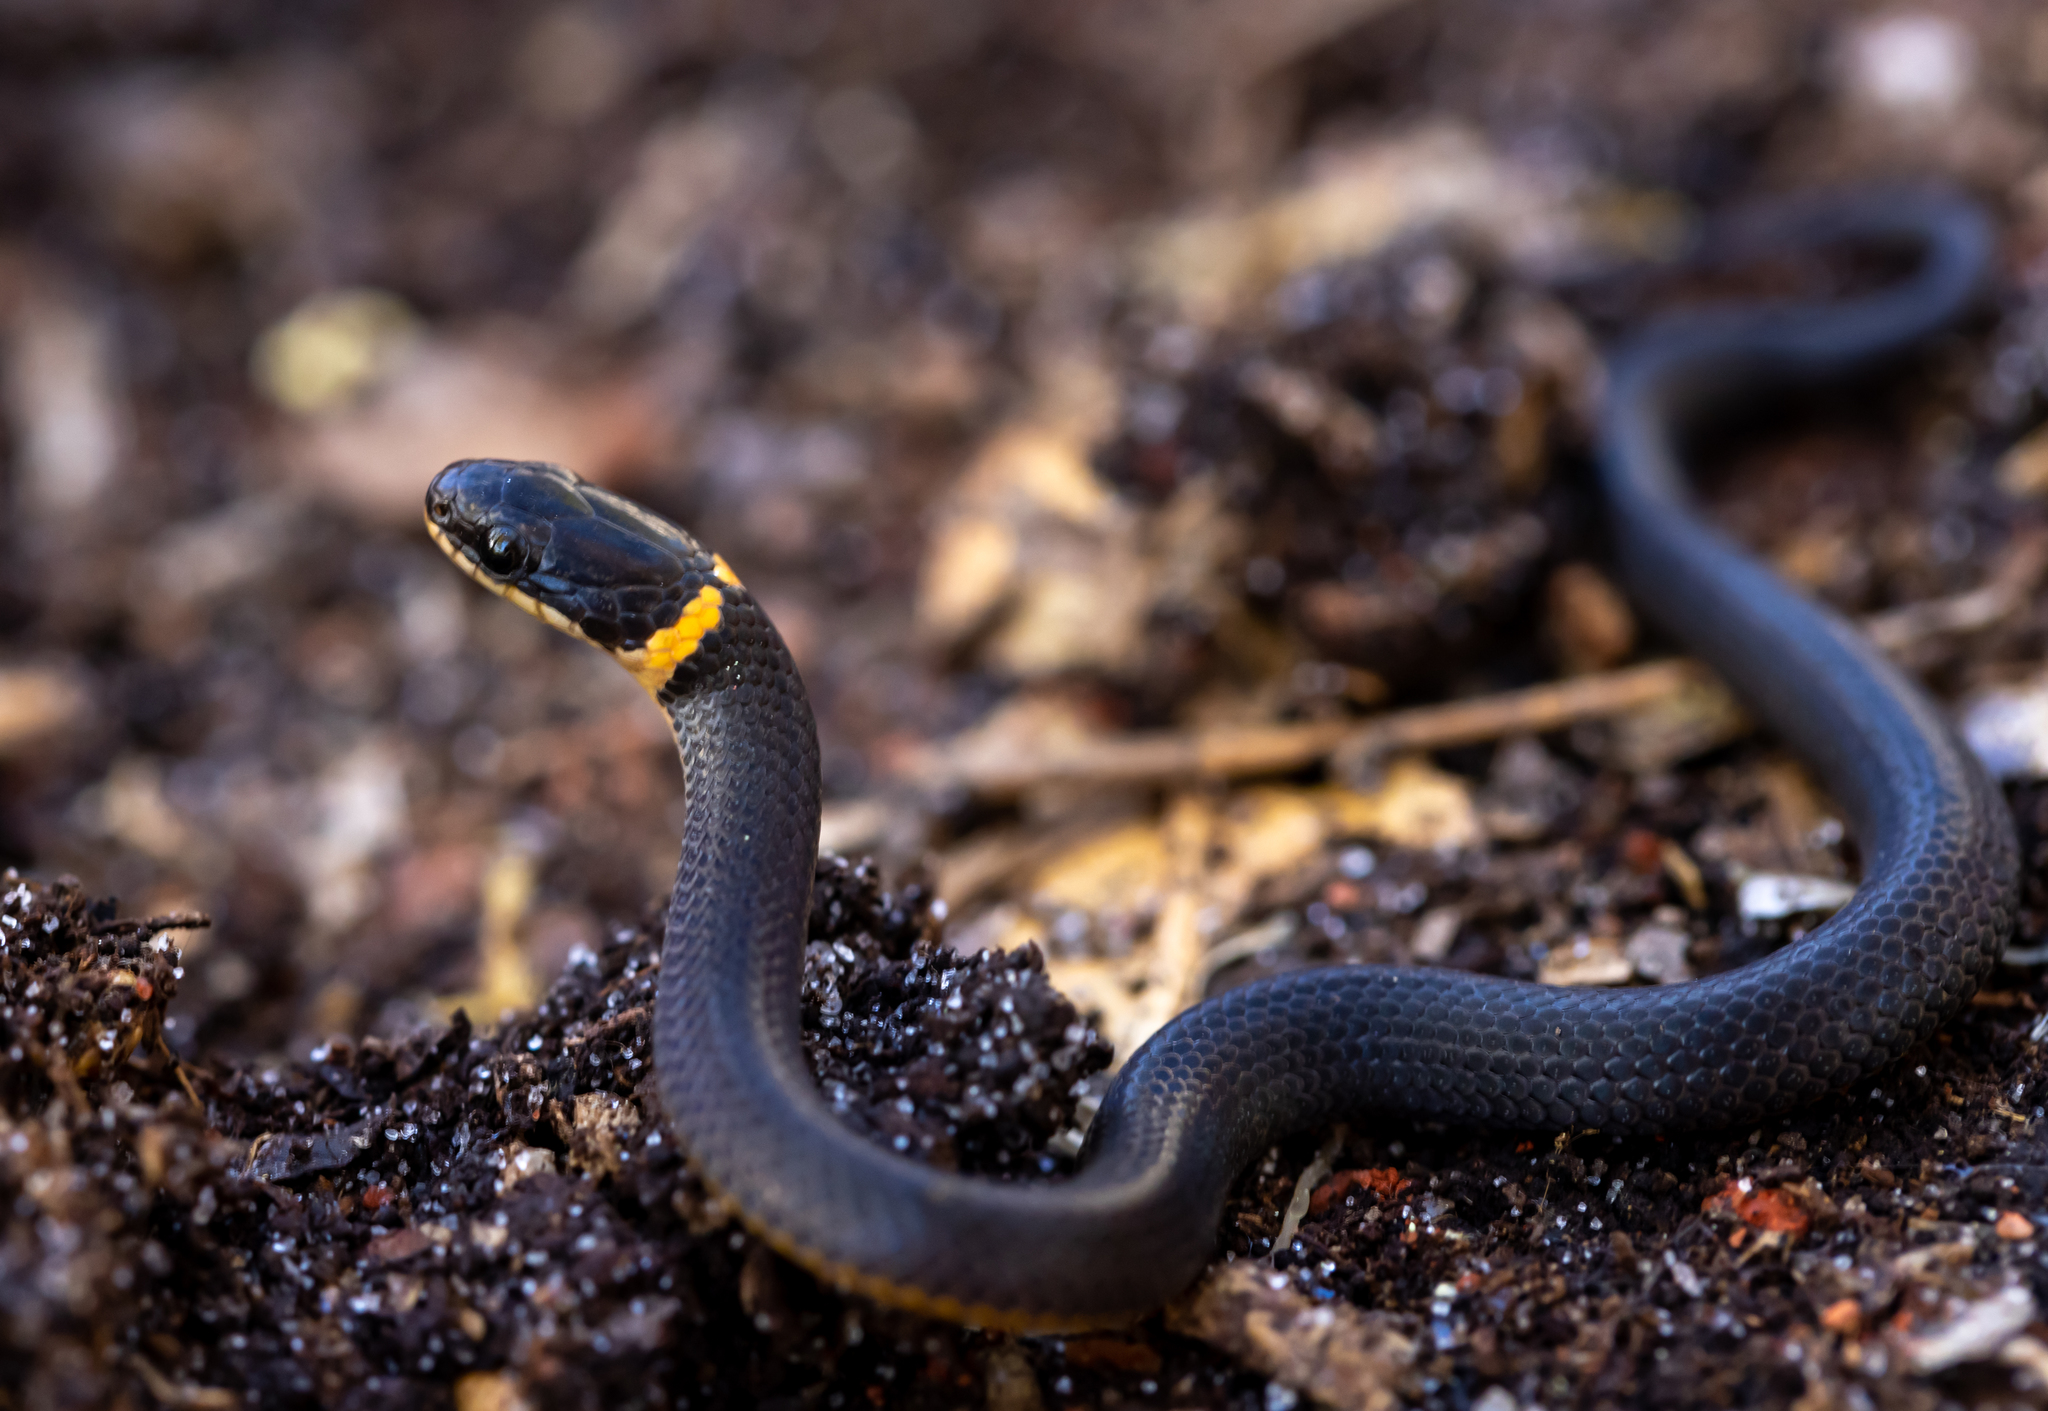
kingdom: Animalia
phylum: Chordata
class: Squamata
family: Colubridae
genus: Diadophis
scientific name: Diadophis punctatus
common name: Ringneck snake
